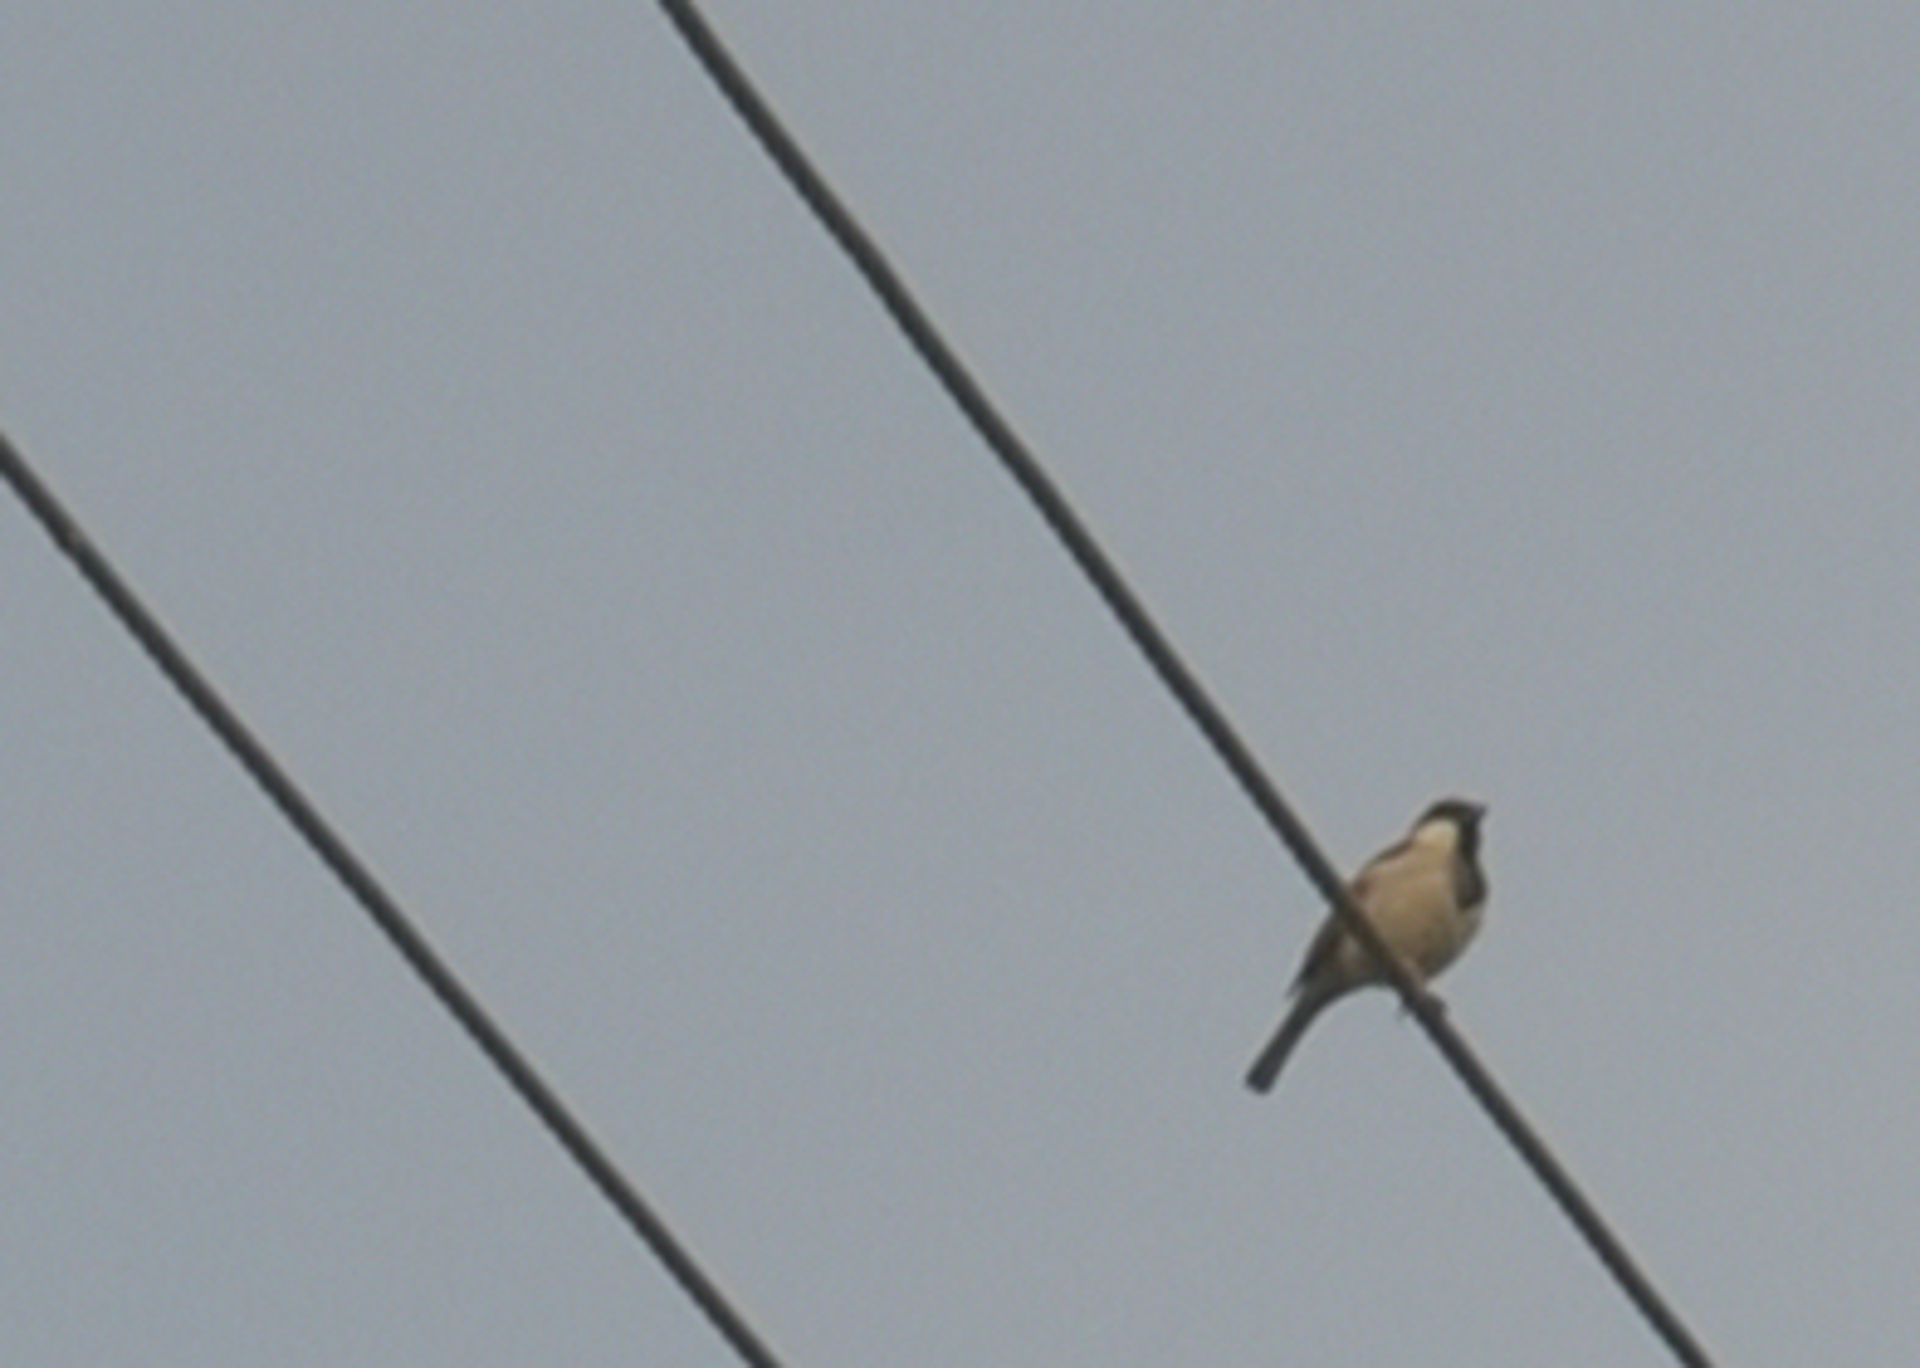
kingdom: Animalia
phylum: Chordata
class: Aves
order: Passeriformes
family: Passeridae
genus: Passer
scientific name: Passer domesticus
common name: House sparrow
